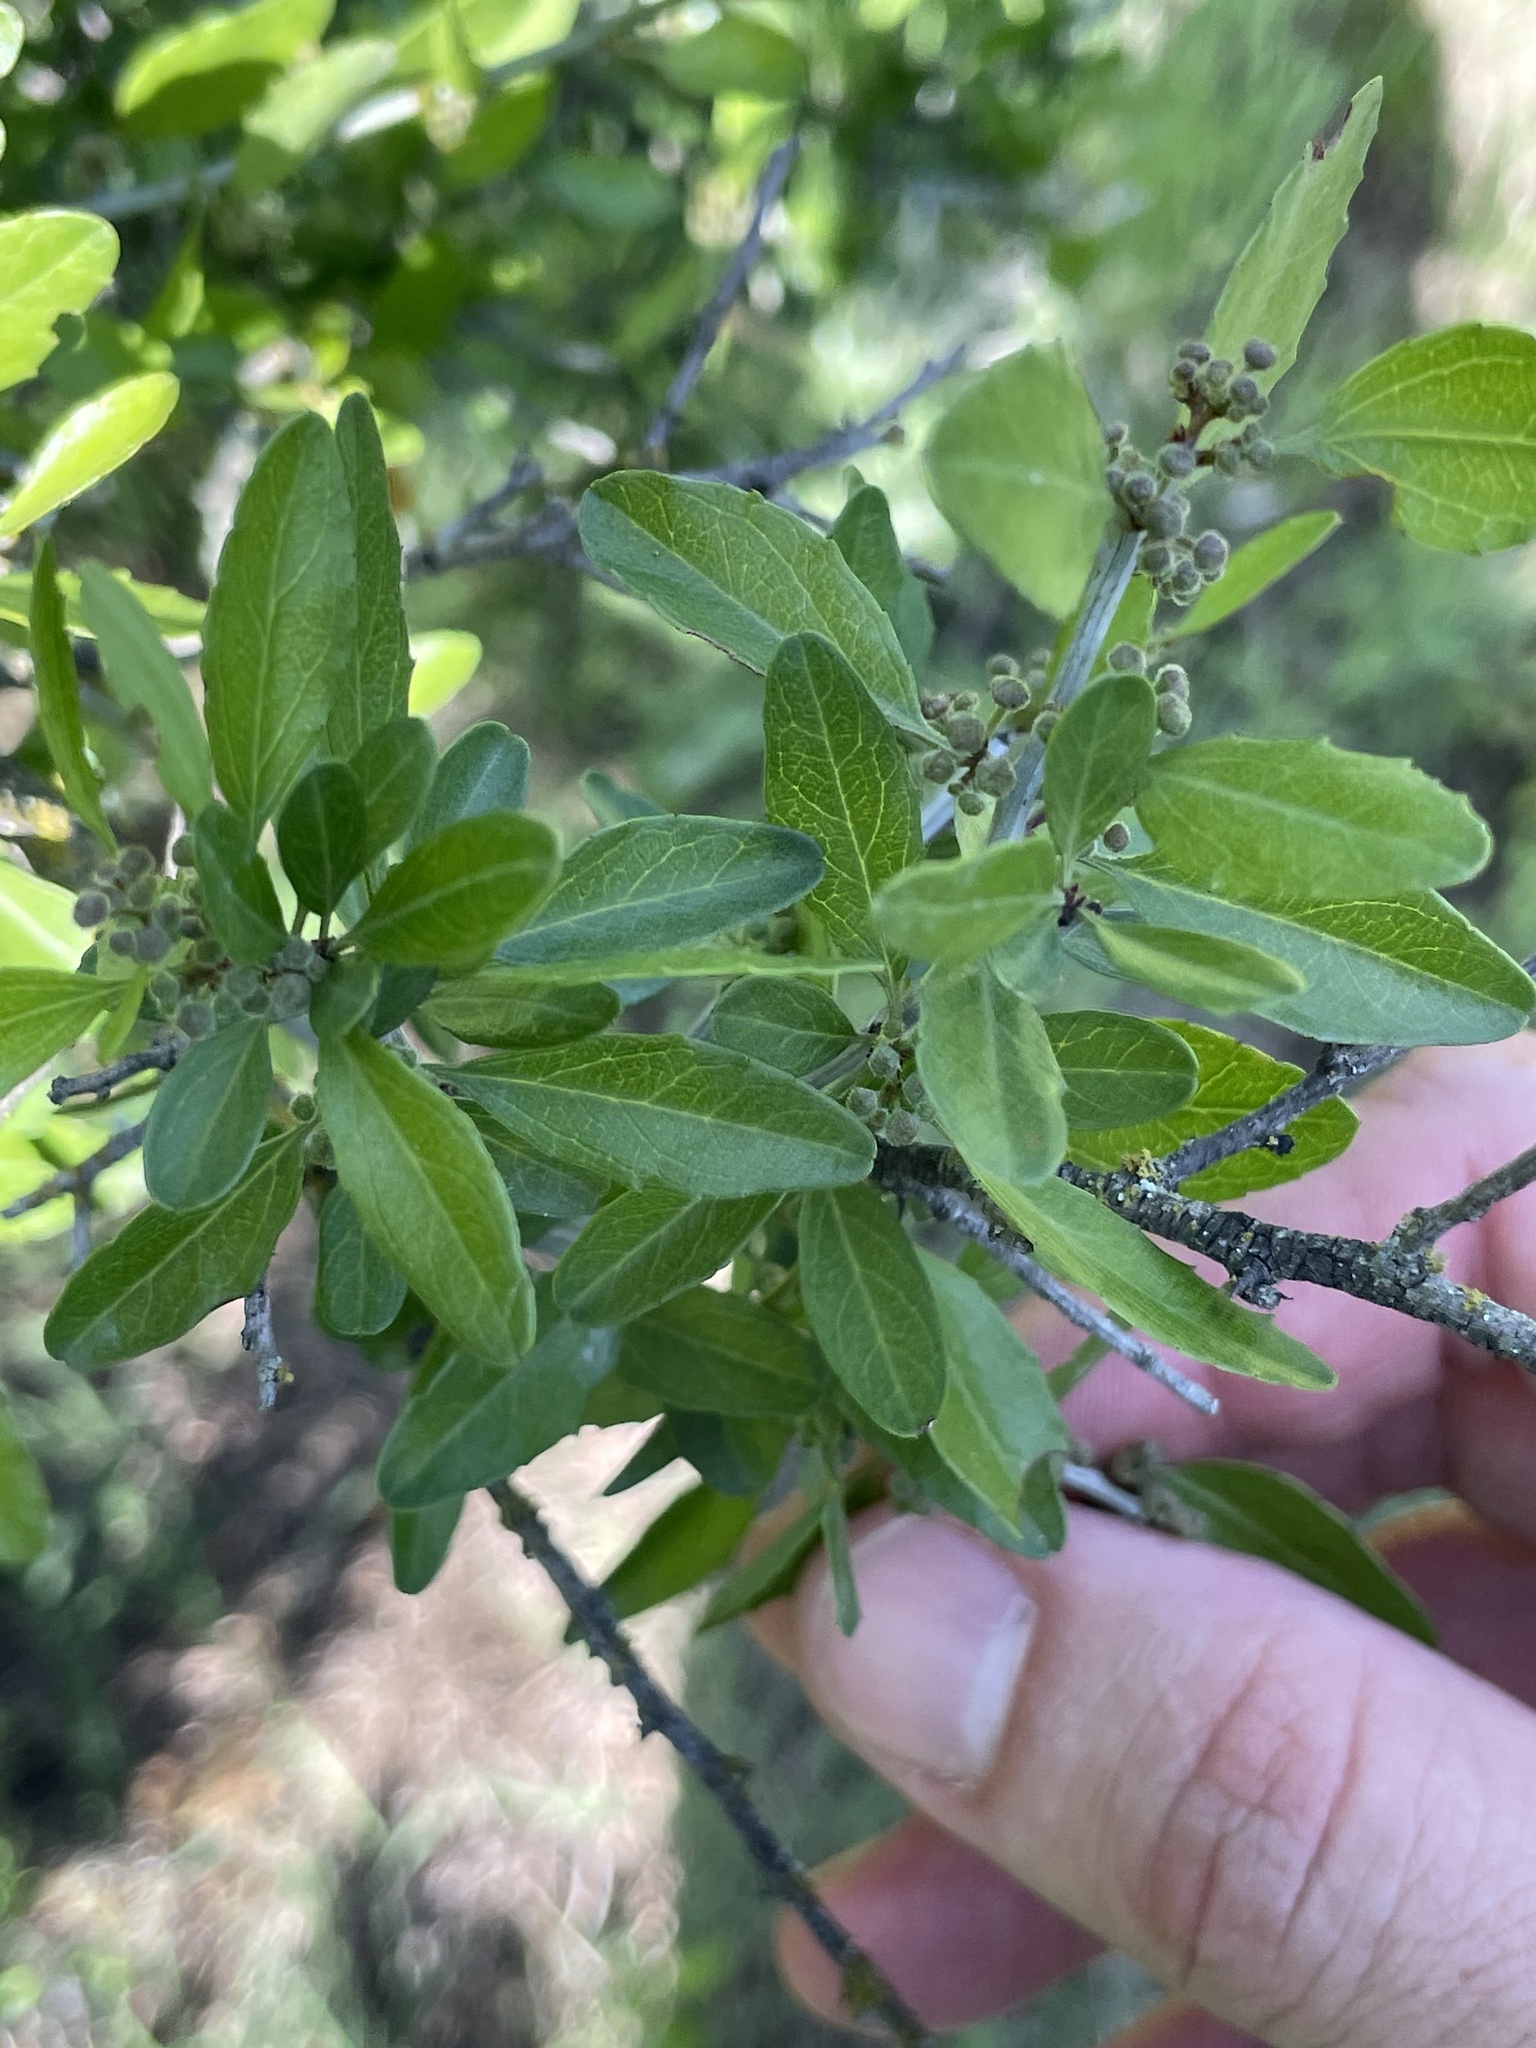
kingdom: Plantae
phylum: Tracheophyta
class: Magnoliopsida
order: Rosales
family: Rhamnaceae
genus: Sarcomphalus
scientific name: Sarcomphalus obtusifolius
